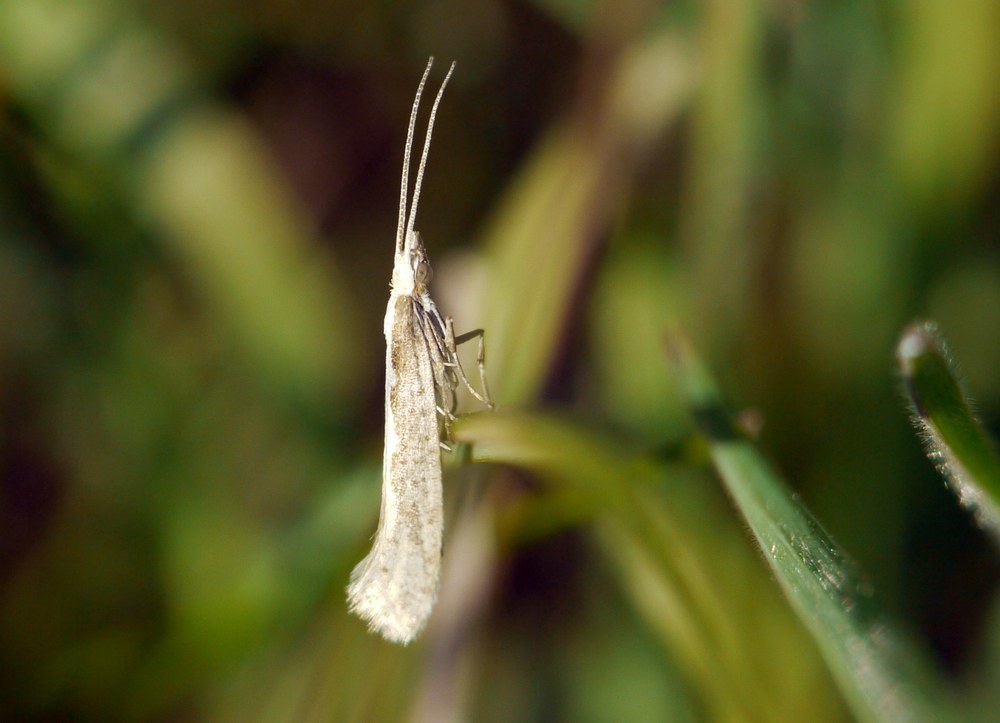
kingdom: Animalia
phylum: Arthropoda
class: Insecta
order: Lepidoptera
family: Plutellidae
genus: Plutella
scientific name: Plutella xylostella
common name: Diamond-back moth
